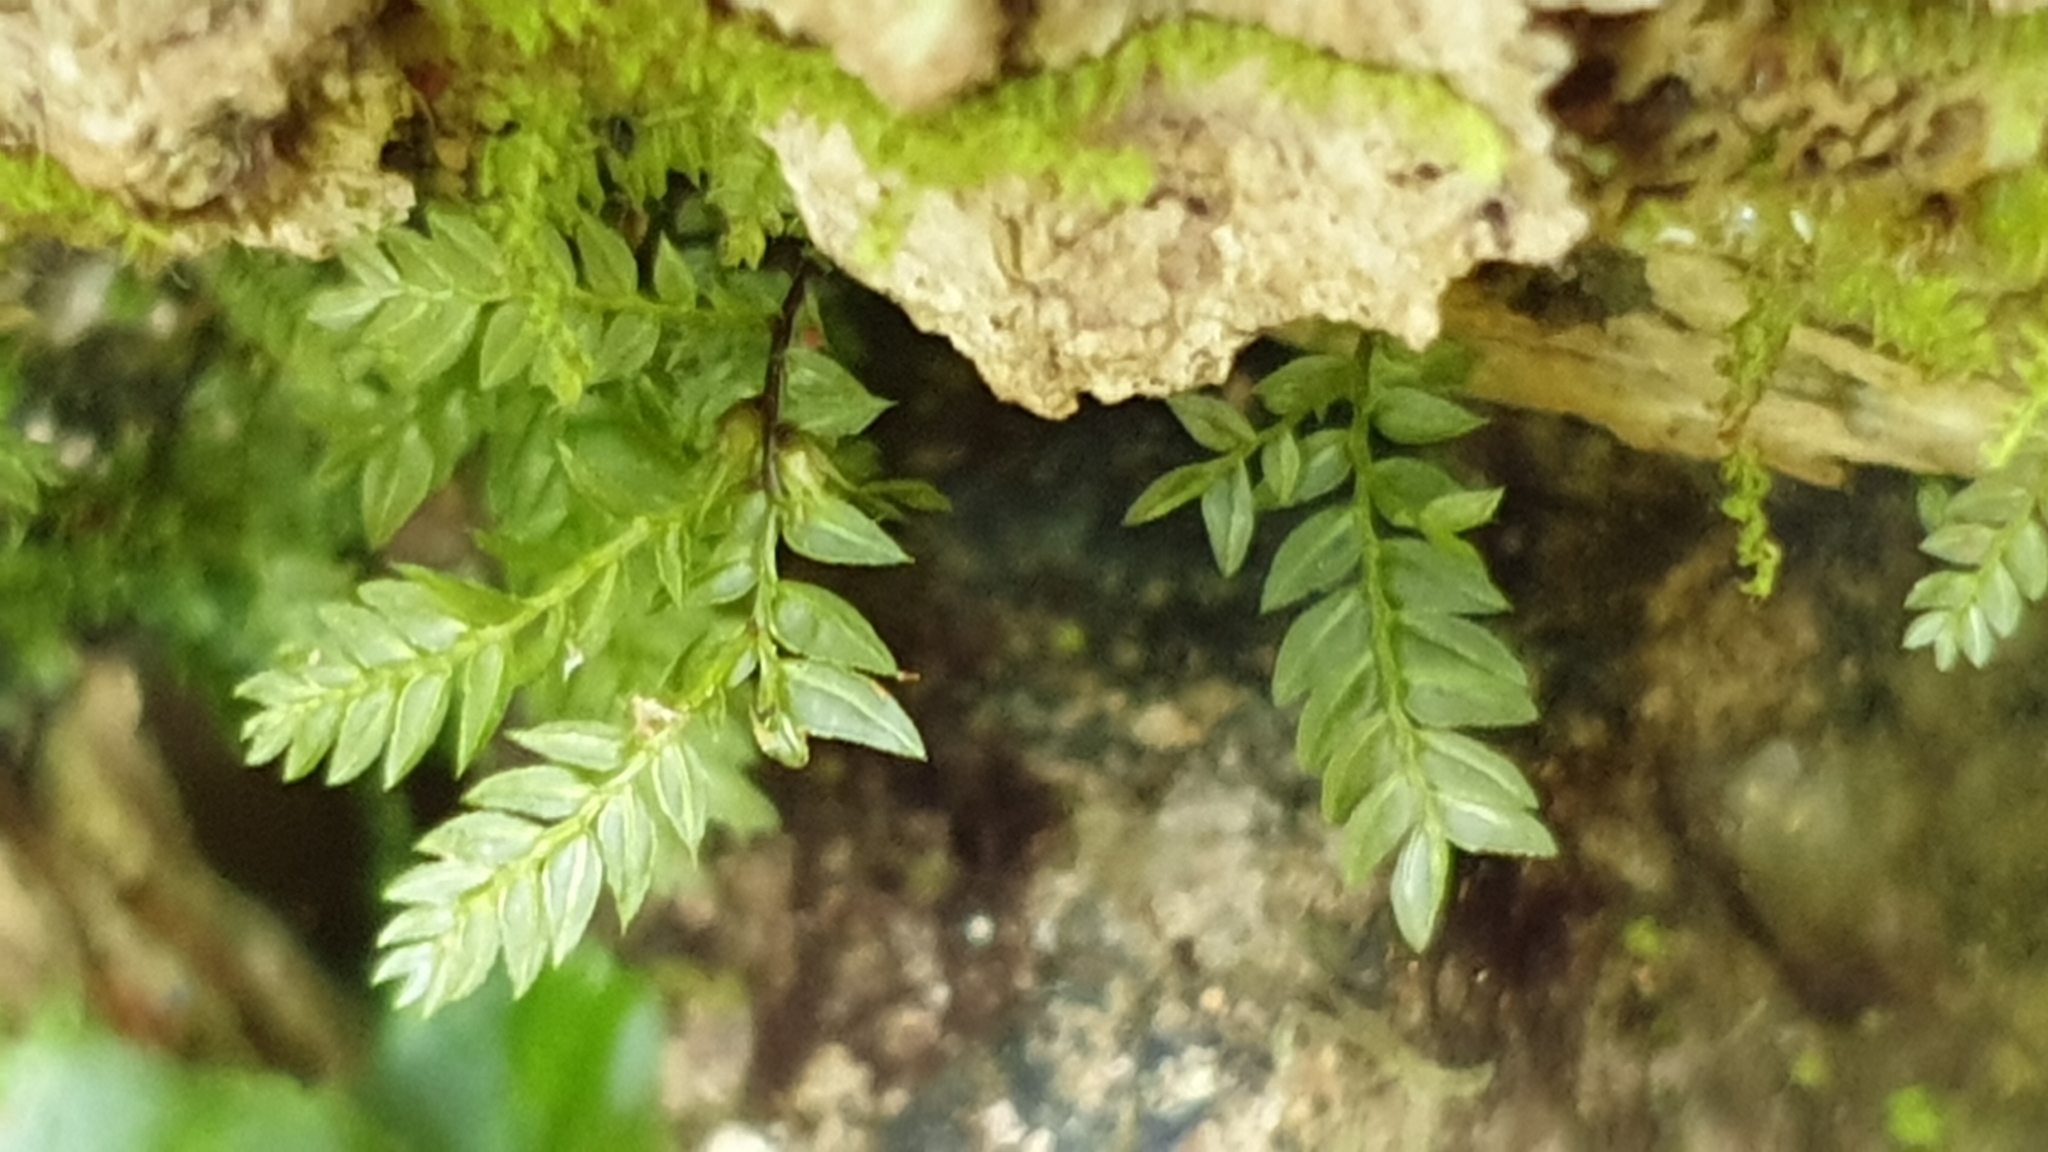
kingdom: Plantae
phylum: Bryophyta
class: Bryopsida
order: Aulacomniales
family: Aulacomniaceae
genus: Hymenodontopsis
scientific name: Hymenodontopsis bifaria
